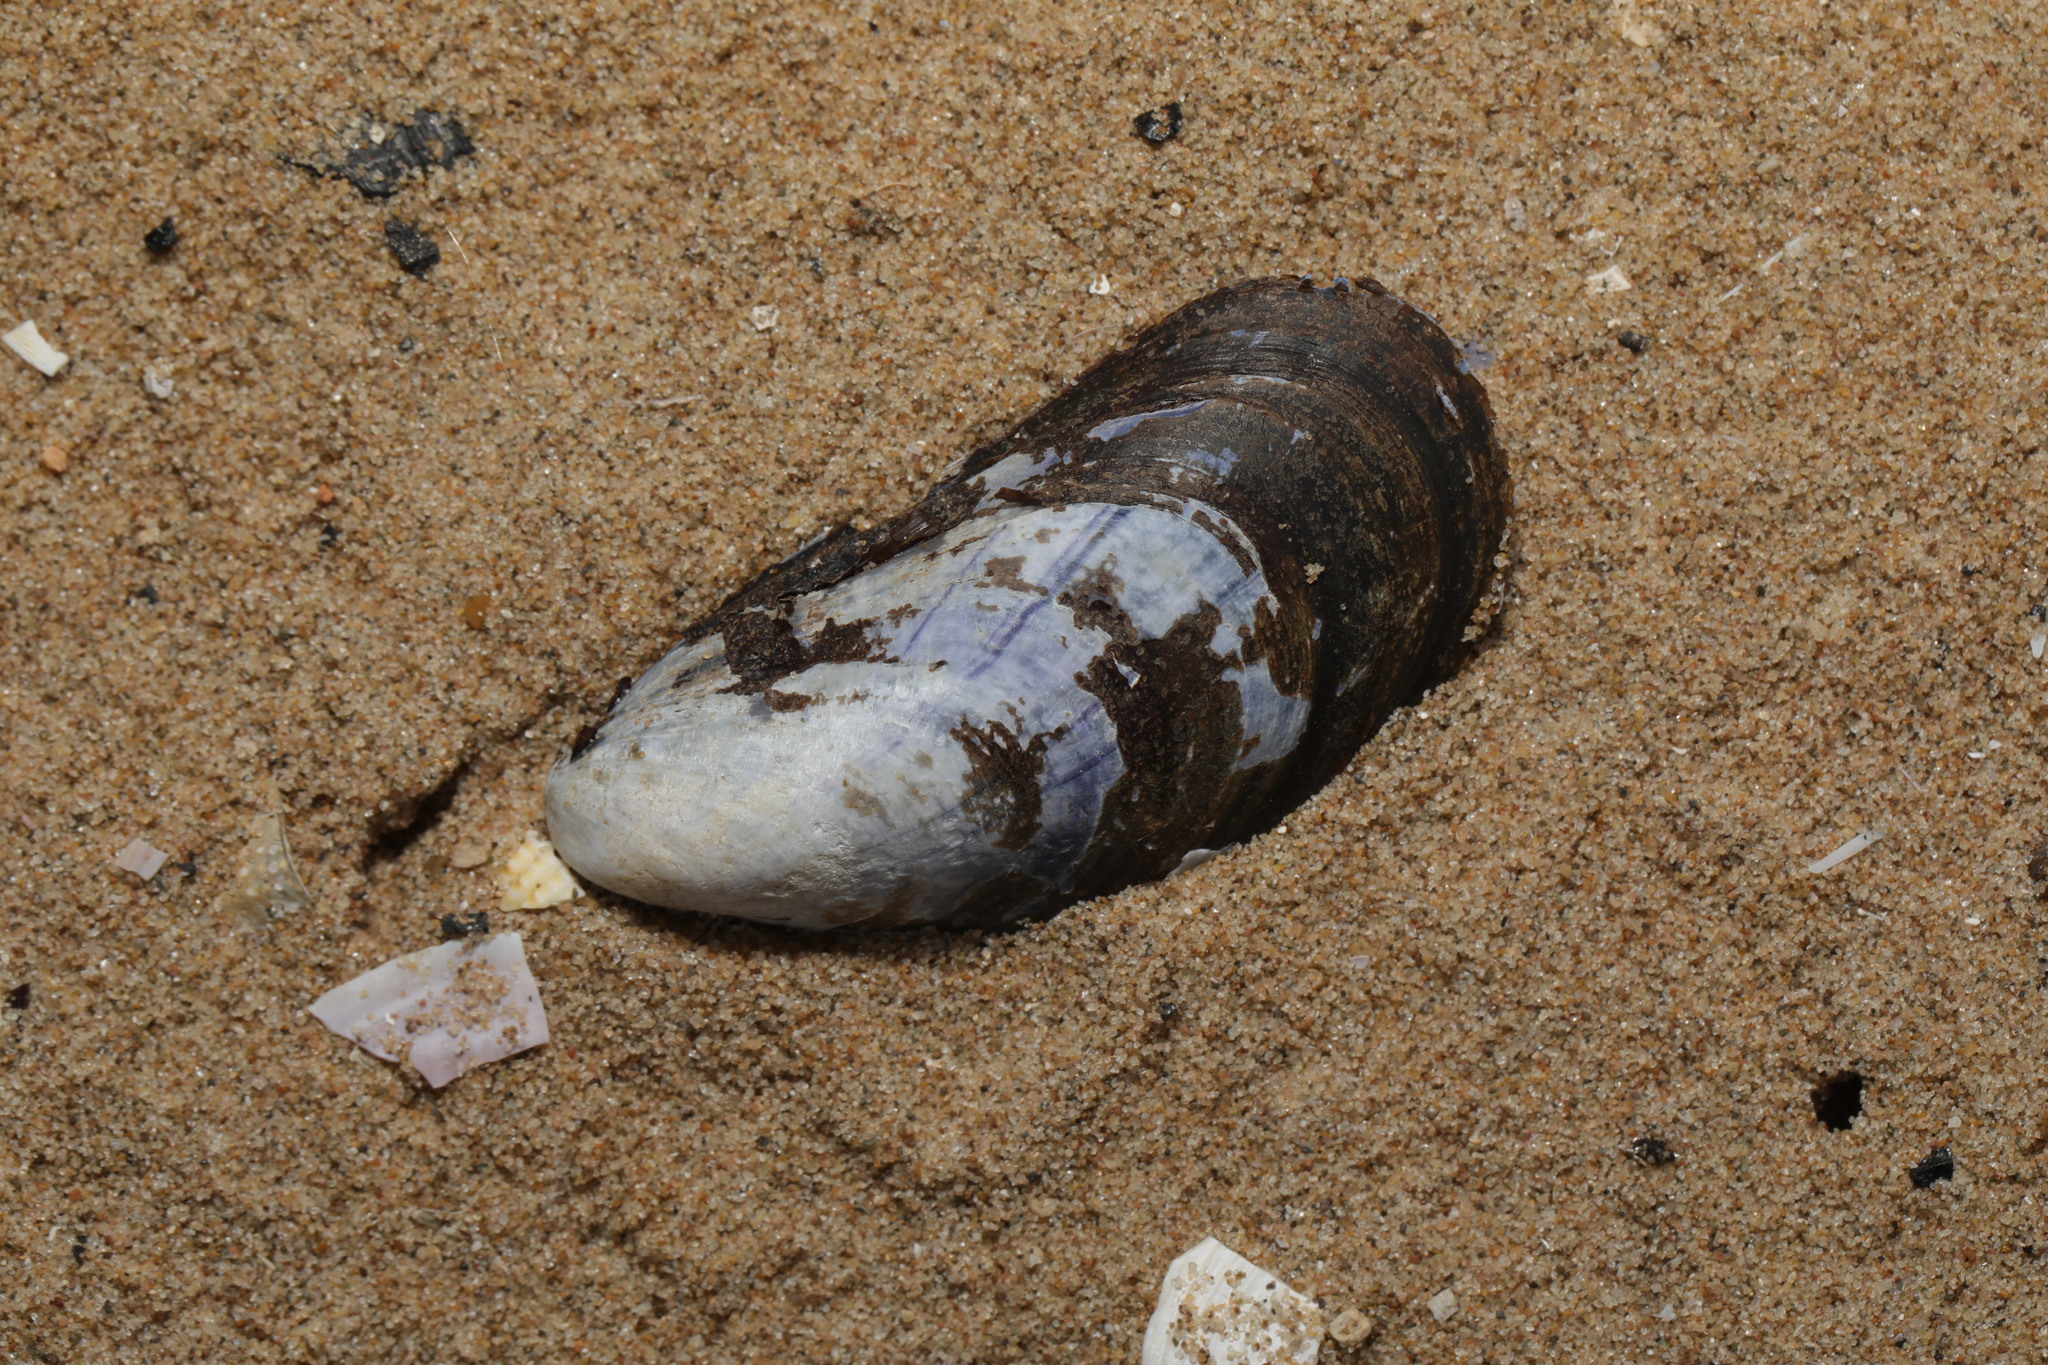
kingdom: Animalia
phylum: Mollusca
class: Bivalvia
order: Mytilida
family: Mytilidae
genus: Mytilus
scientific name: Mytilus edulis
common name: Blue mussel
